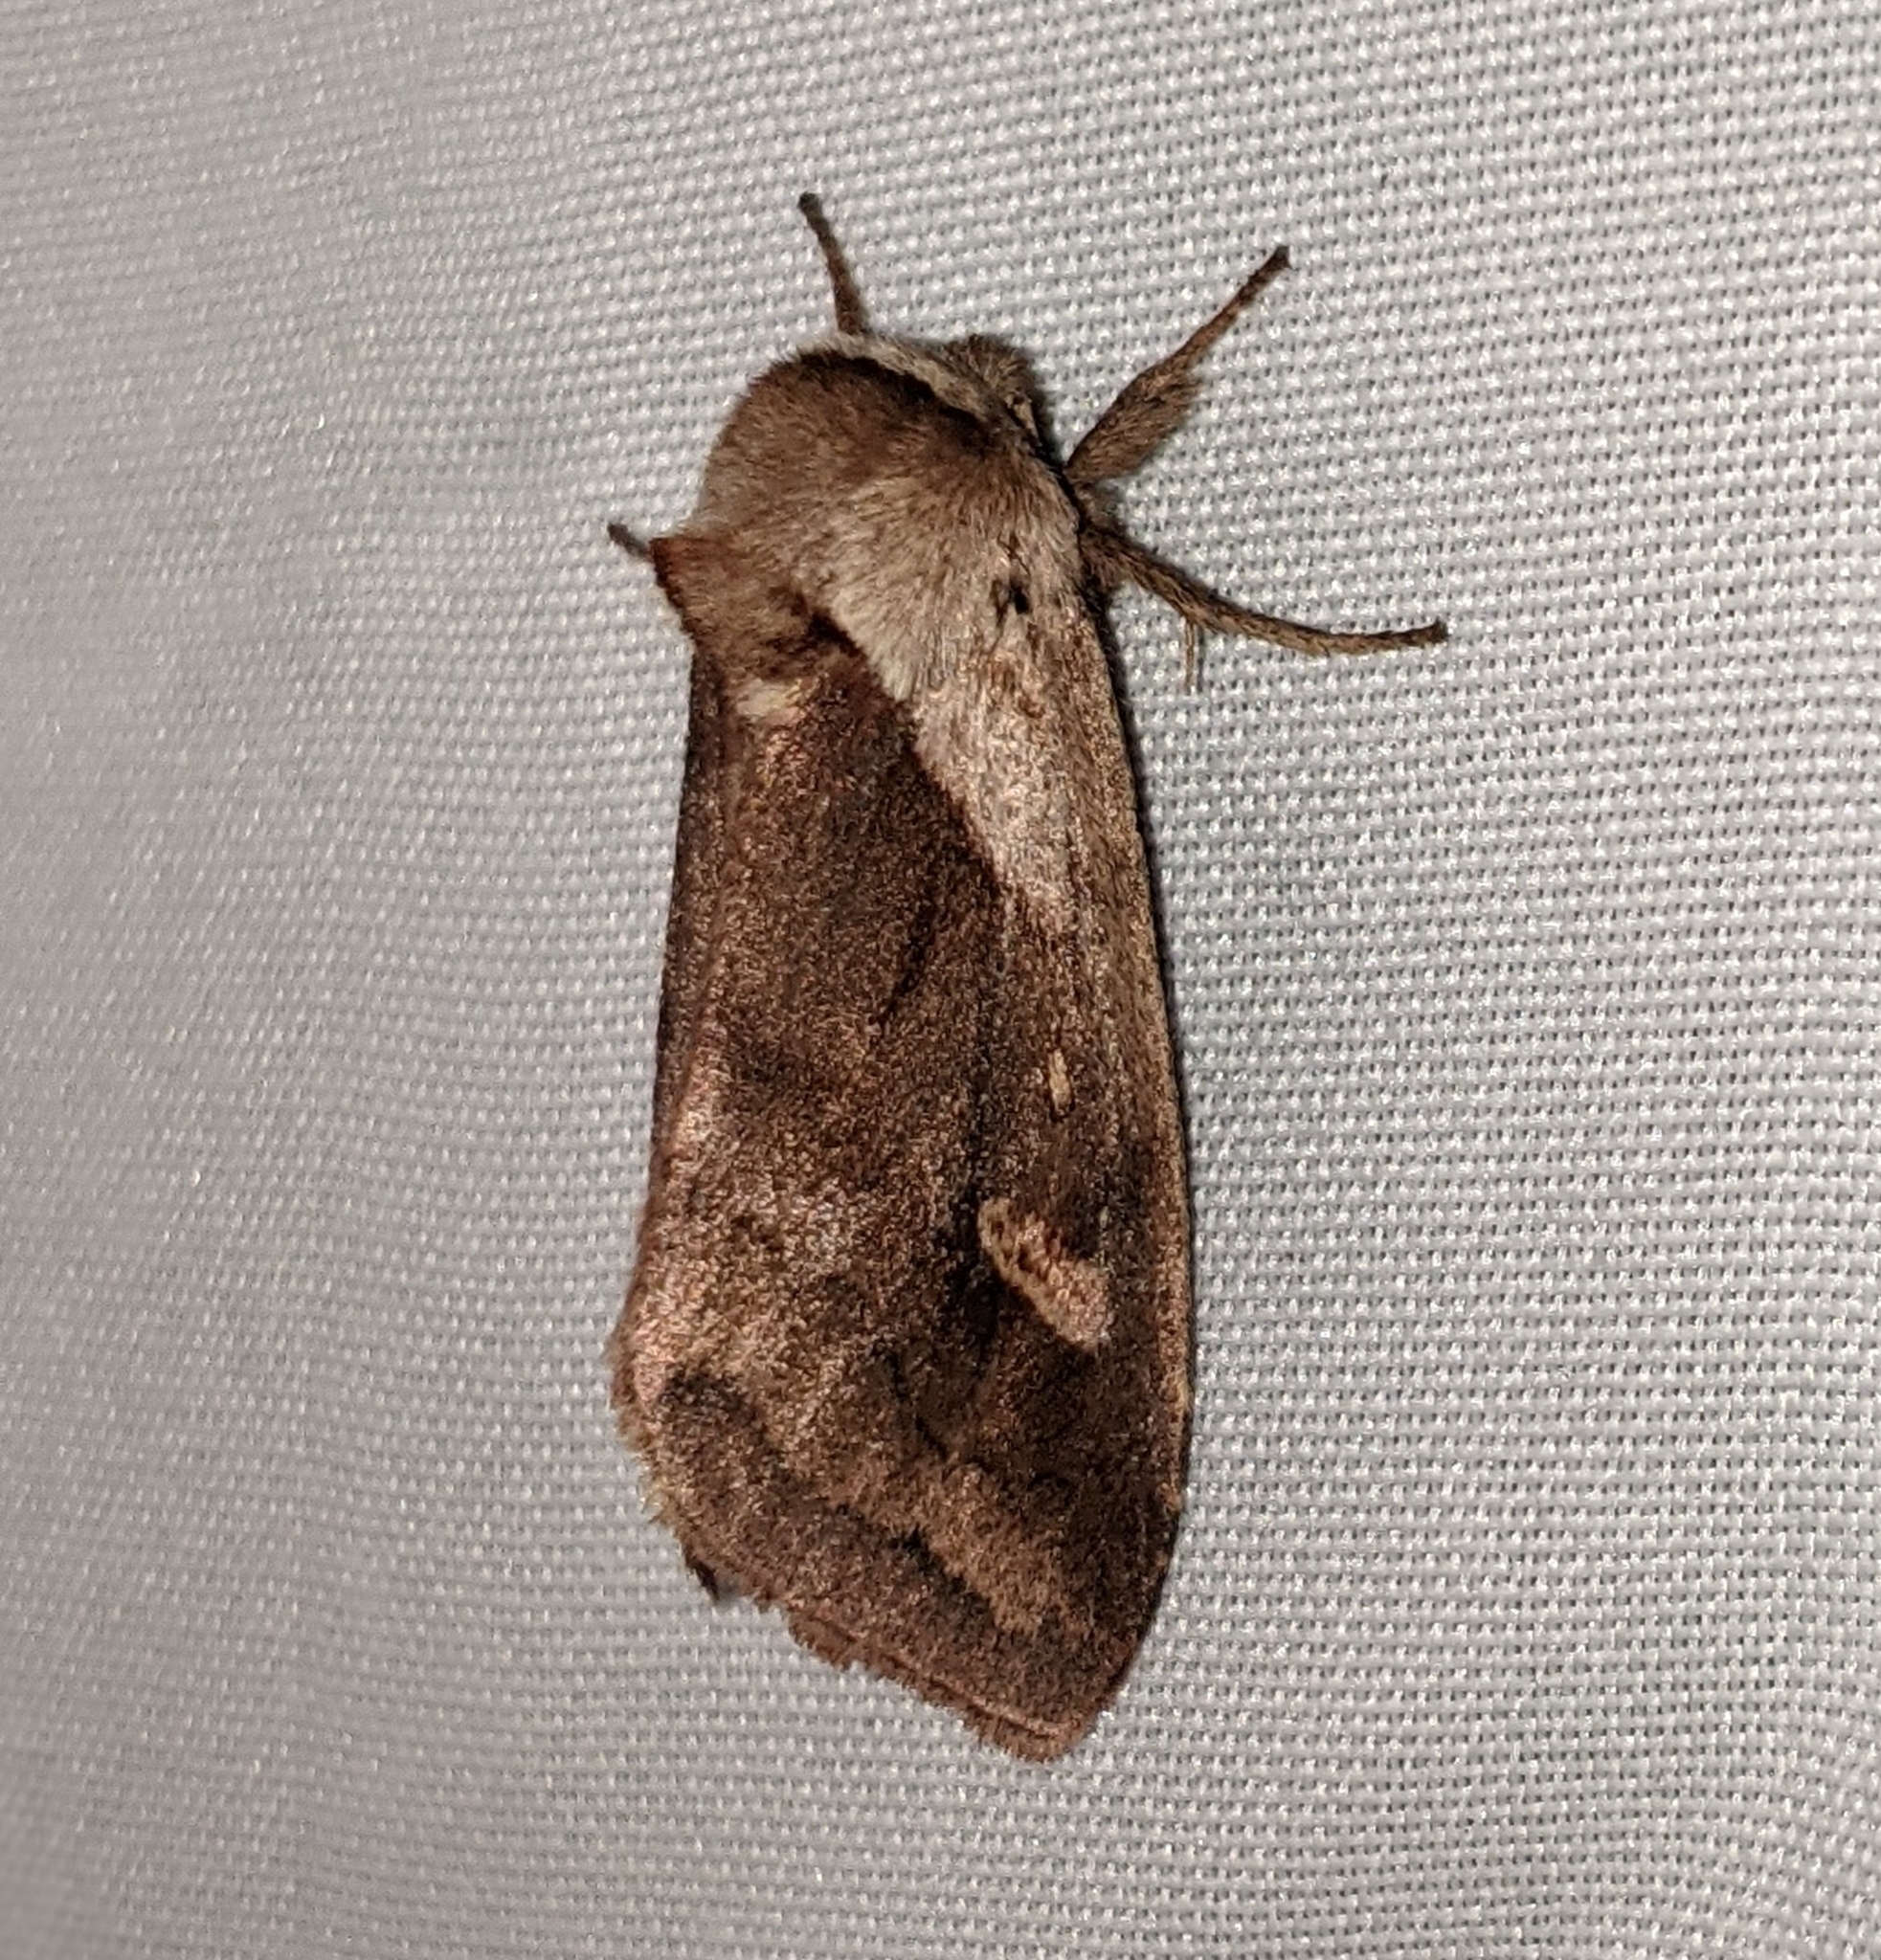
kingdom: Animalia
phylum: Arthropoda
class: Insecta
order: Lepidoptera
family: Noctuidae
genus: Bellura
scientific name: Bellura obliqua
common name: Cattail borer moth
